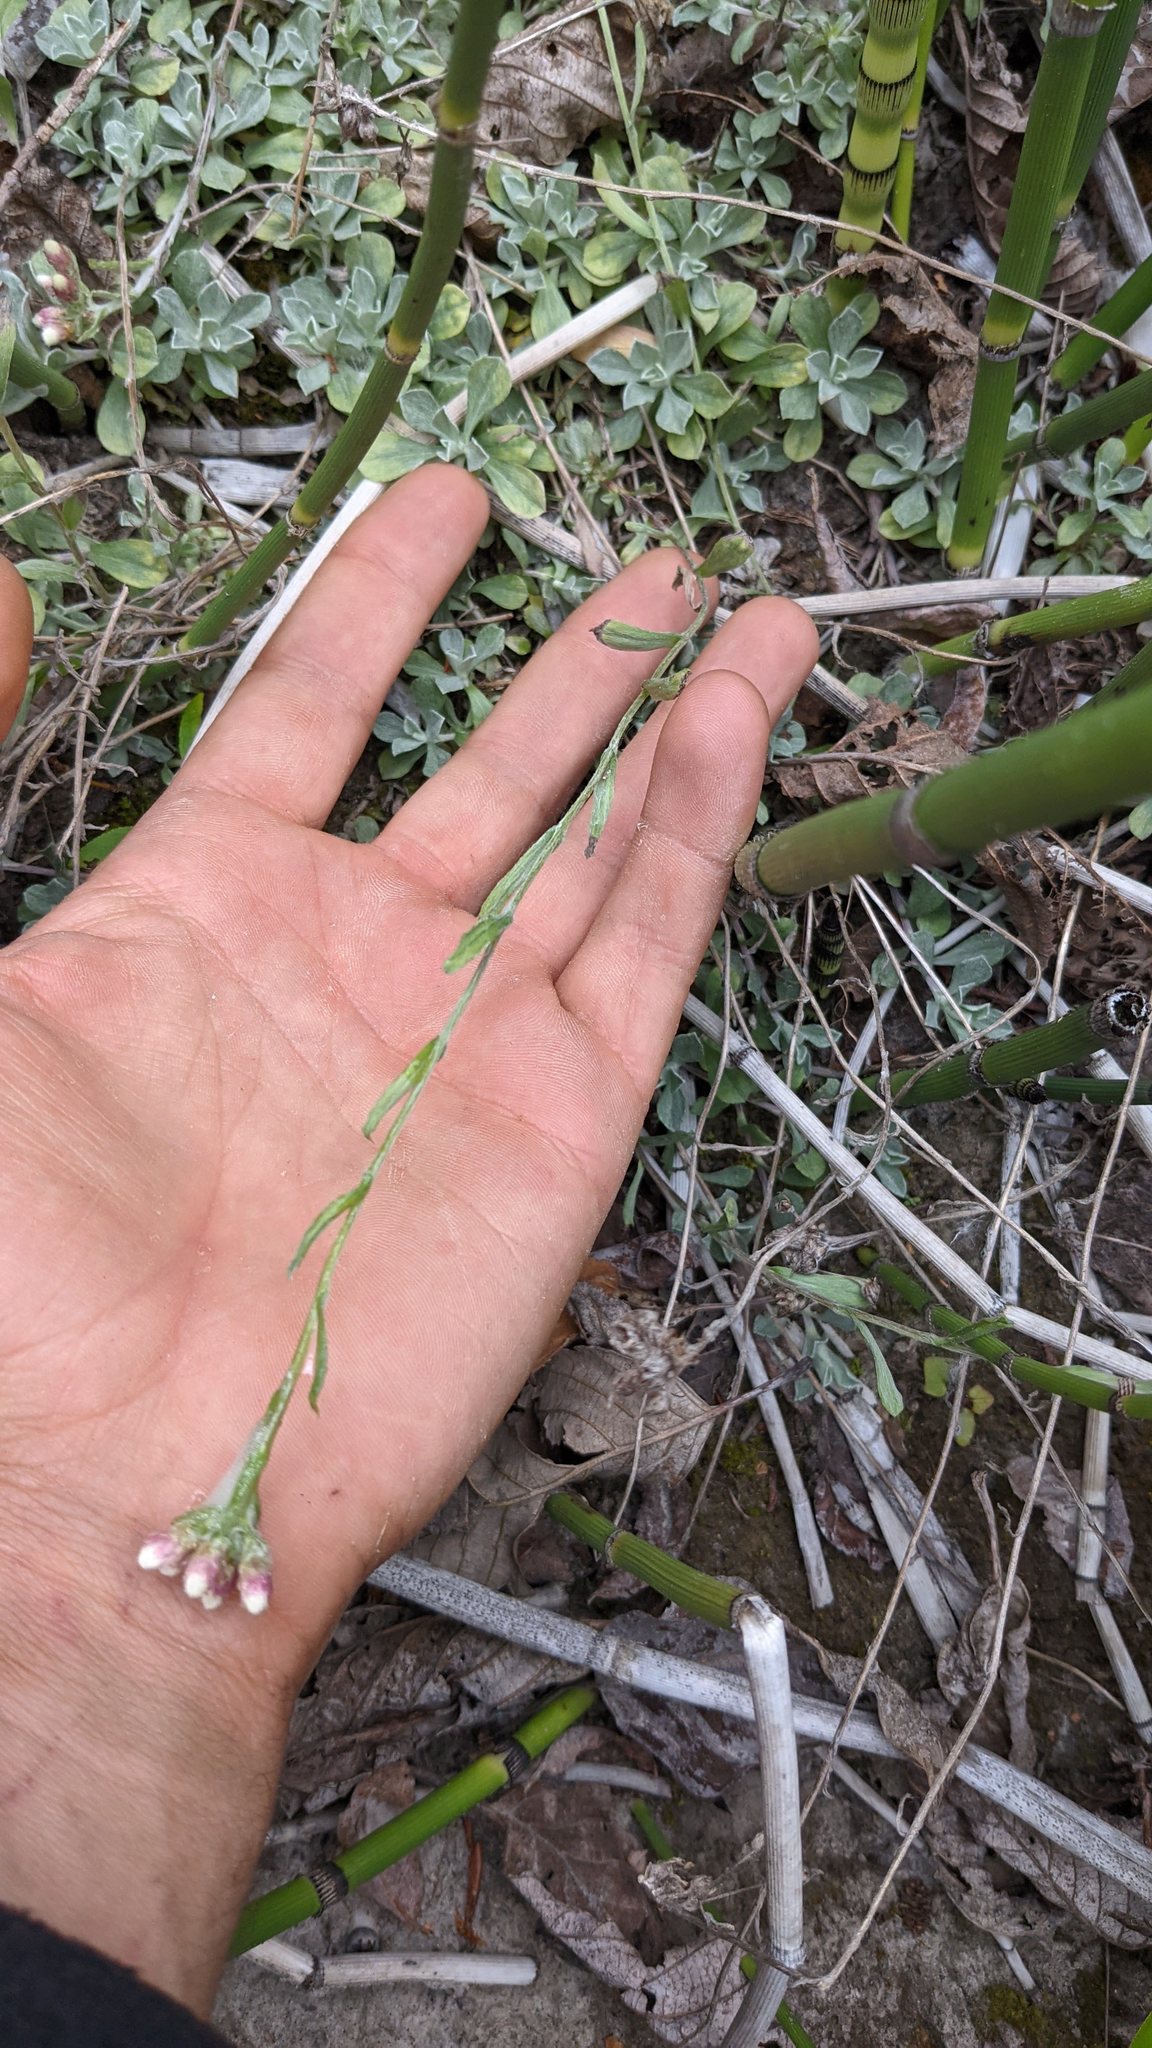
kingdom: Plantae
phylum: Tracheophyta
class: Magnoliopsida
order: Asterales
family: Asteraceae
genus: Antennaria
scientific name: Antennaria rosea
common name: Rosy pussytoes
